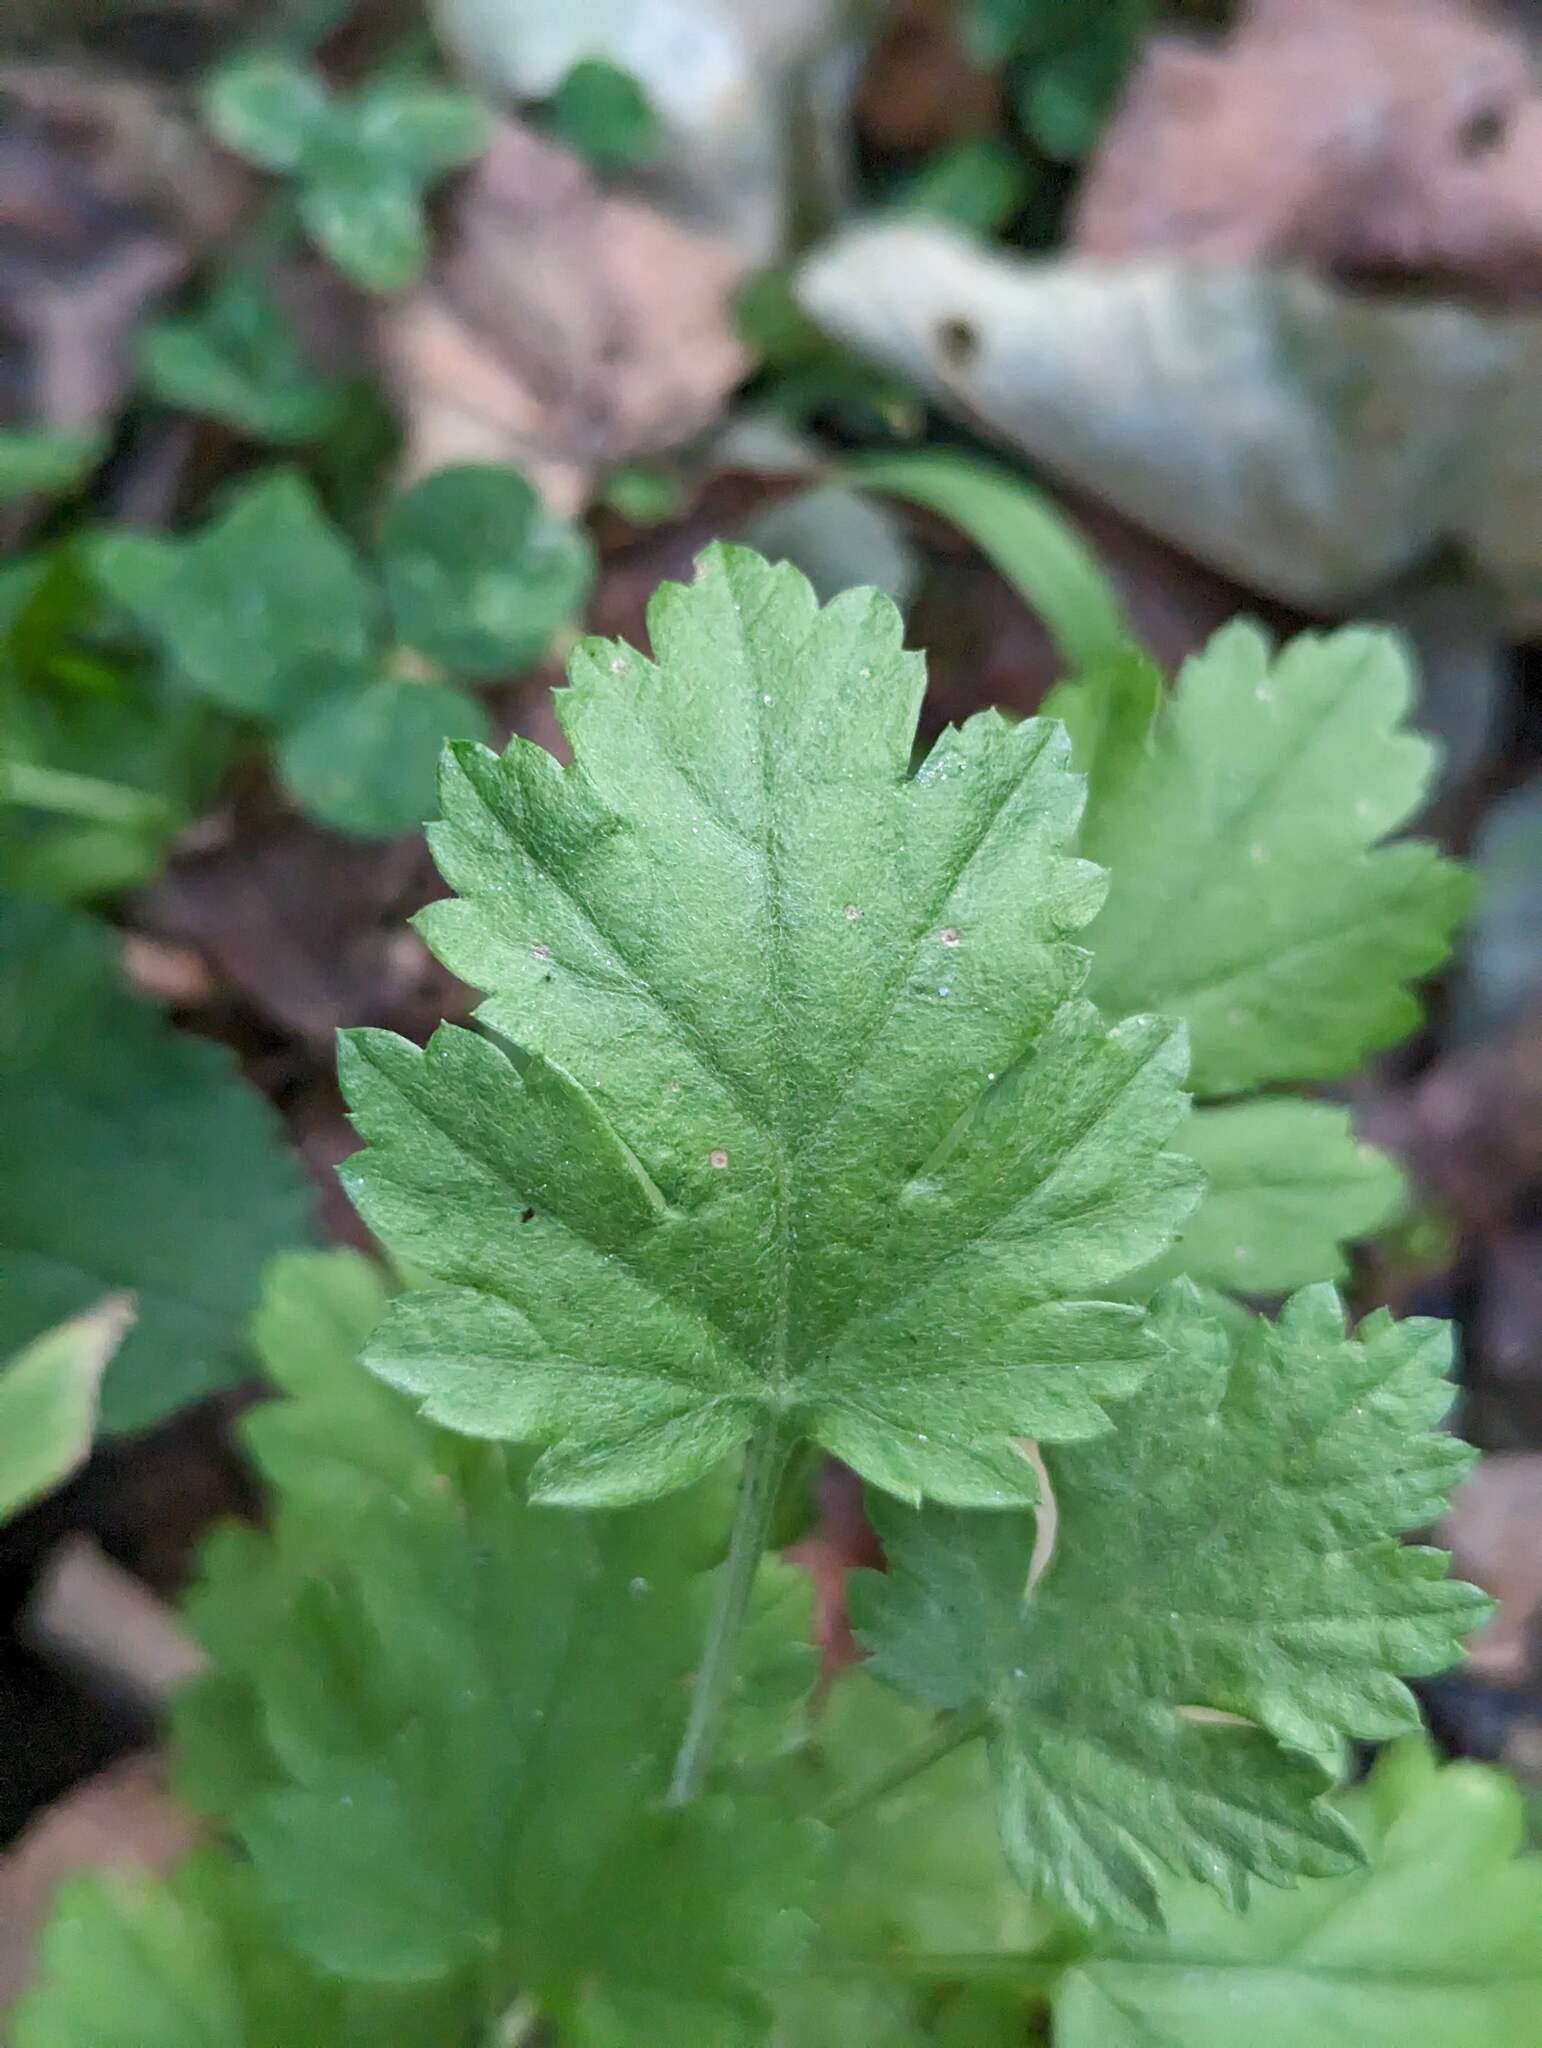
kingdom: Plantae
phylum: Tracheophyta
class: Magnoliopsida
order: Asterales
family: Asteraceae
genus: Artemisia
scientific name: Artemisia vulgaris
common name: Mugwort
